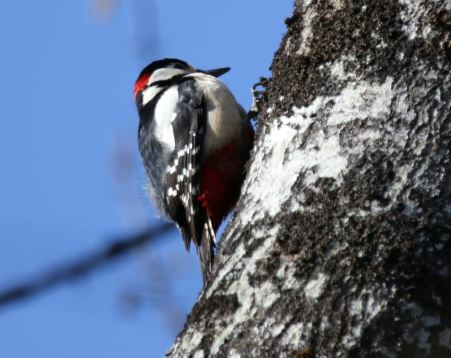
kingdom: Animalia
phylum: Chordata
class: Aves
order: Piciformes
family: Picidae
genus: Dendrocopos
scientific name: Dendrocopos major
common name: Great spotted woodpecker
